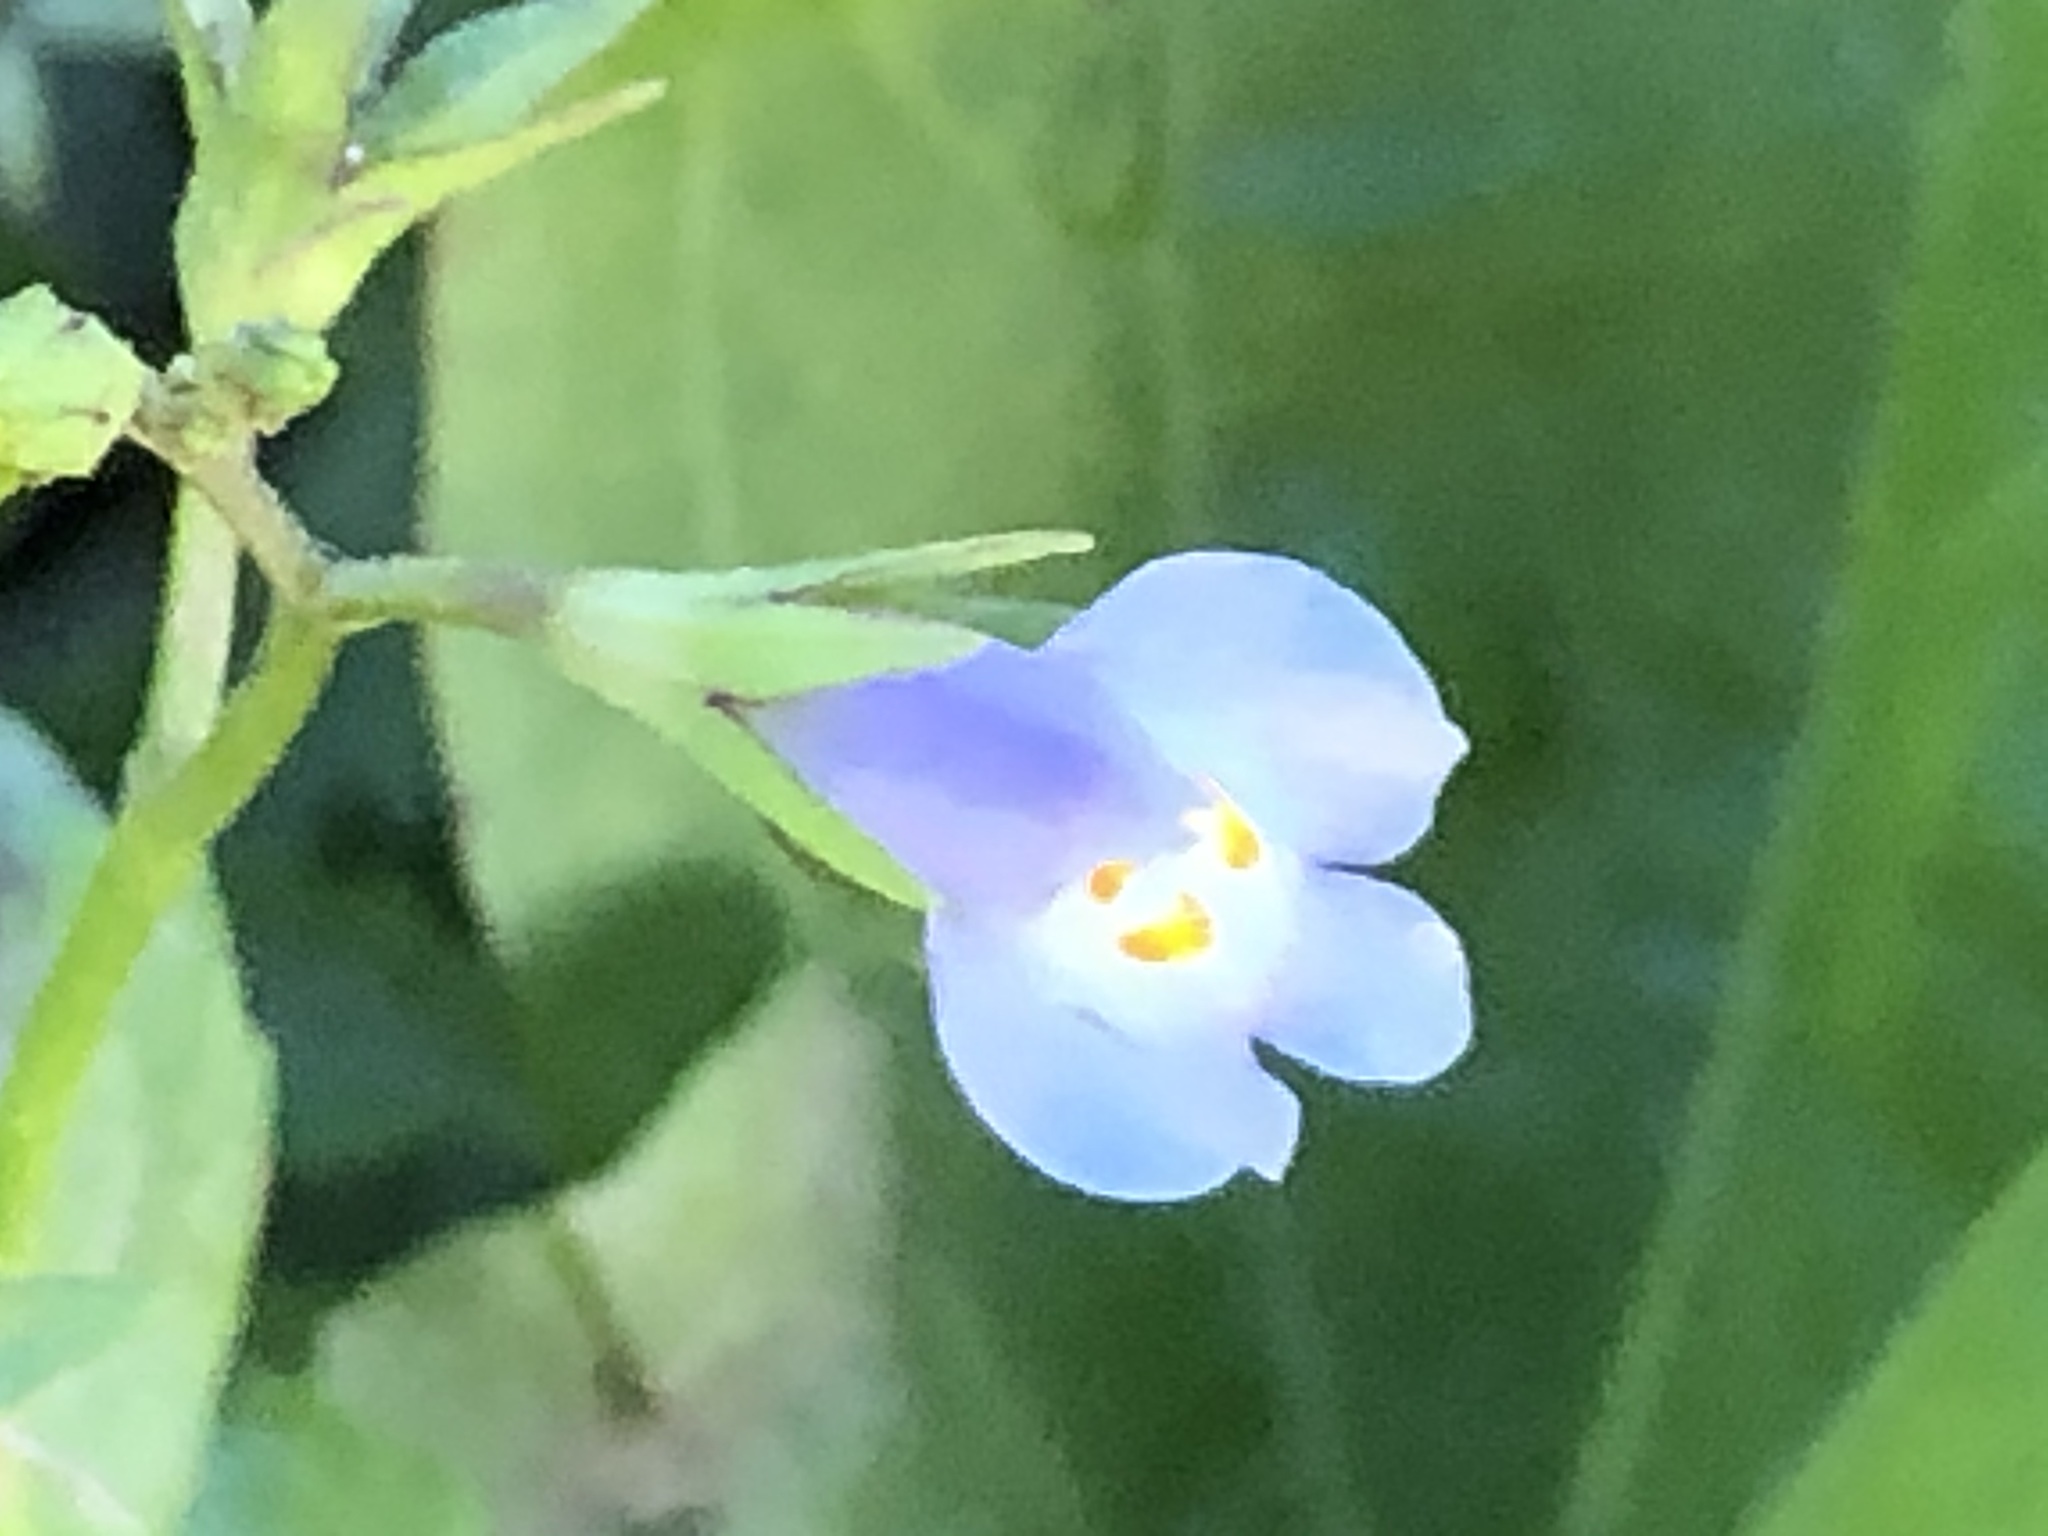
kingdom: Plantae
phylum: Tracheophyta
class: Magnoliopsida
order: Lamiales
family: Mazaceae
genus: Mazus
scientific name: Mazus pumilus
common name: Japanese mazus
